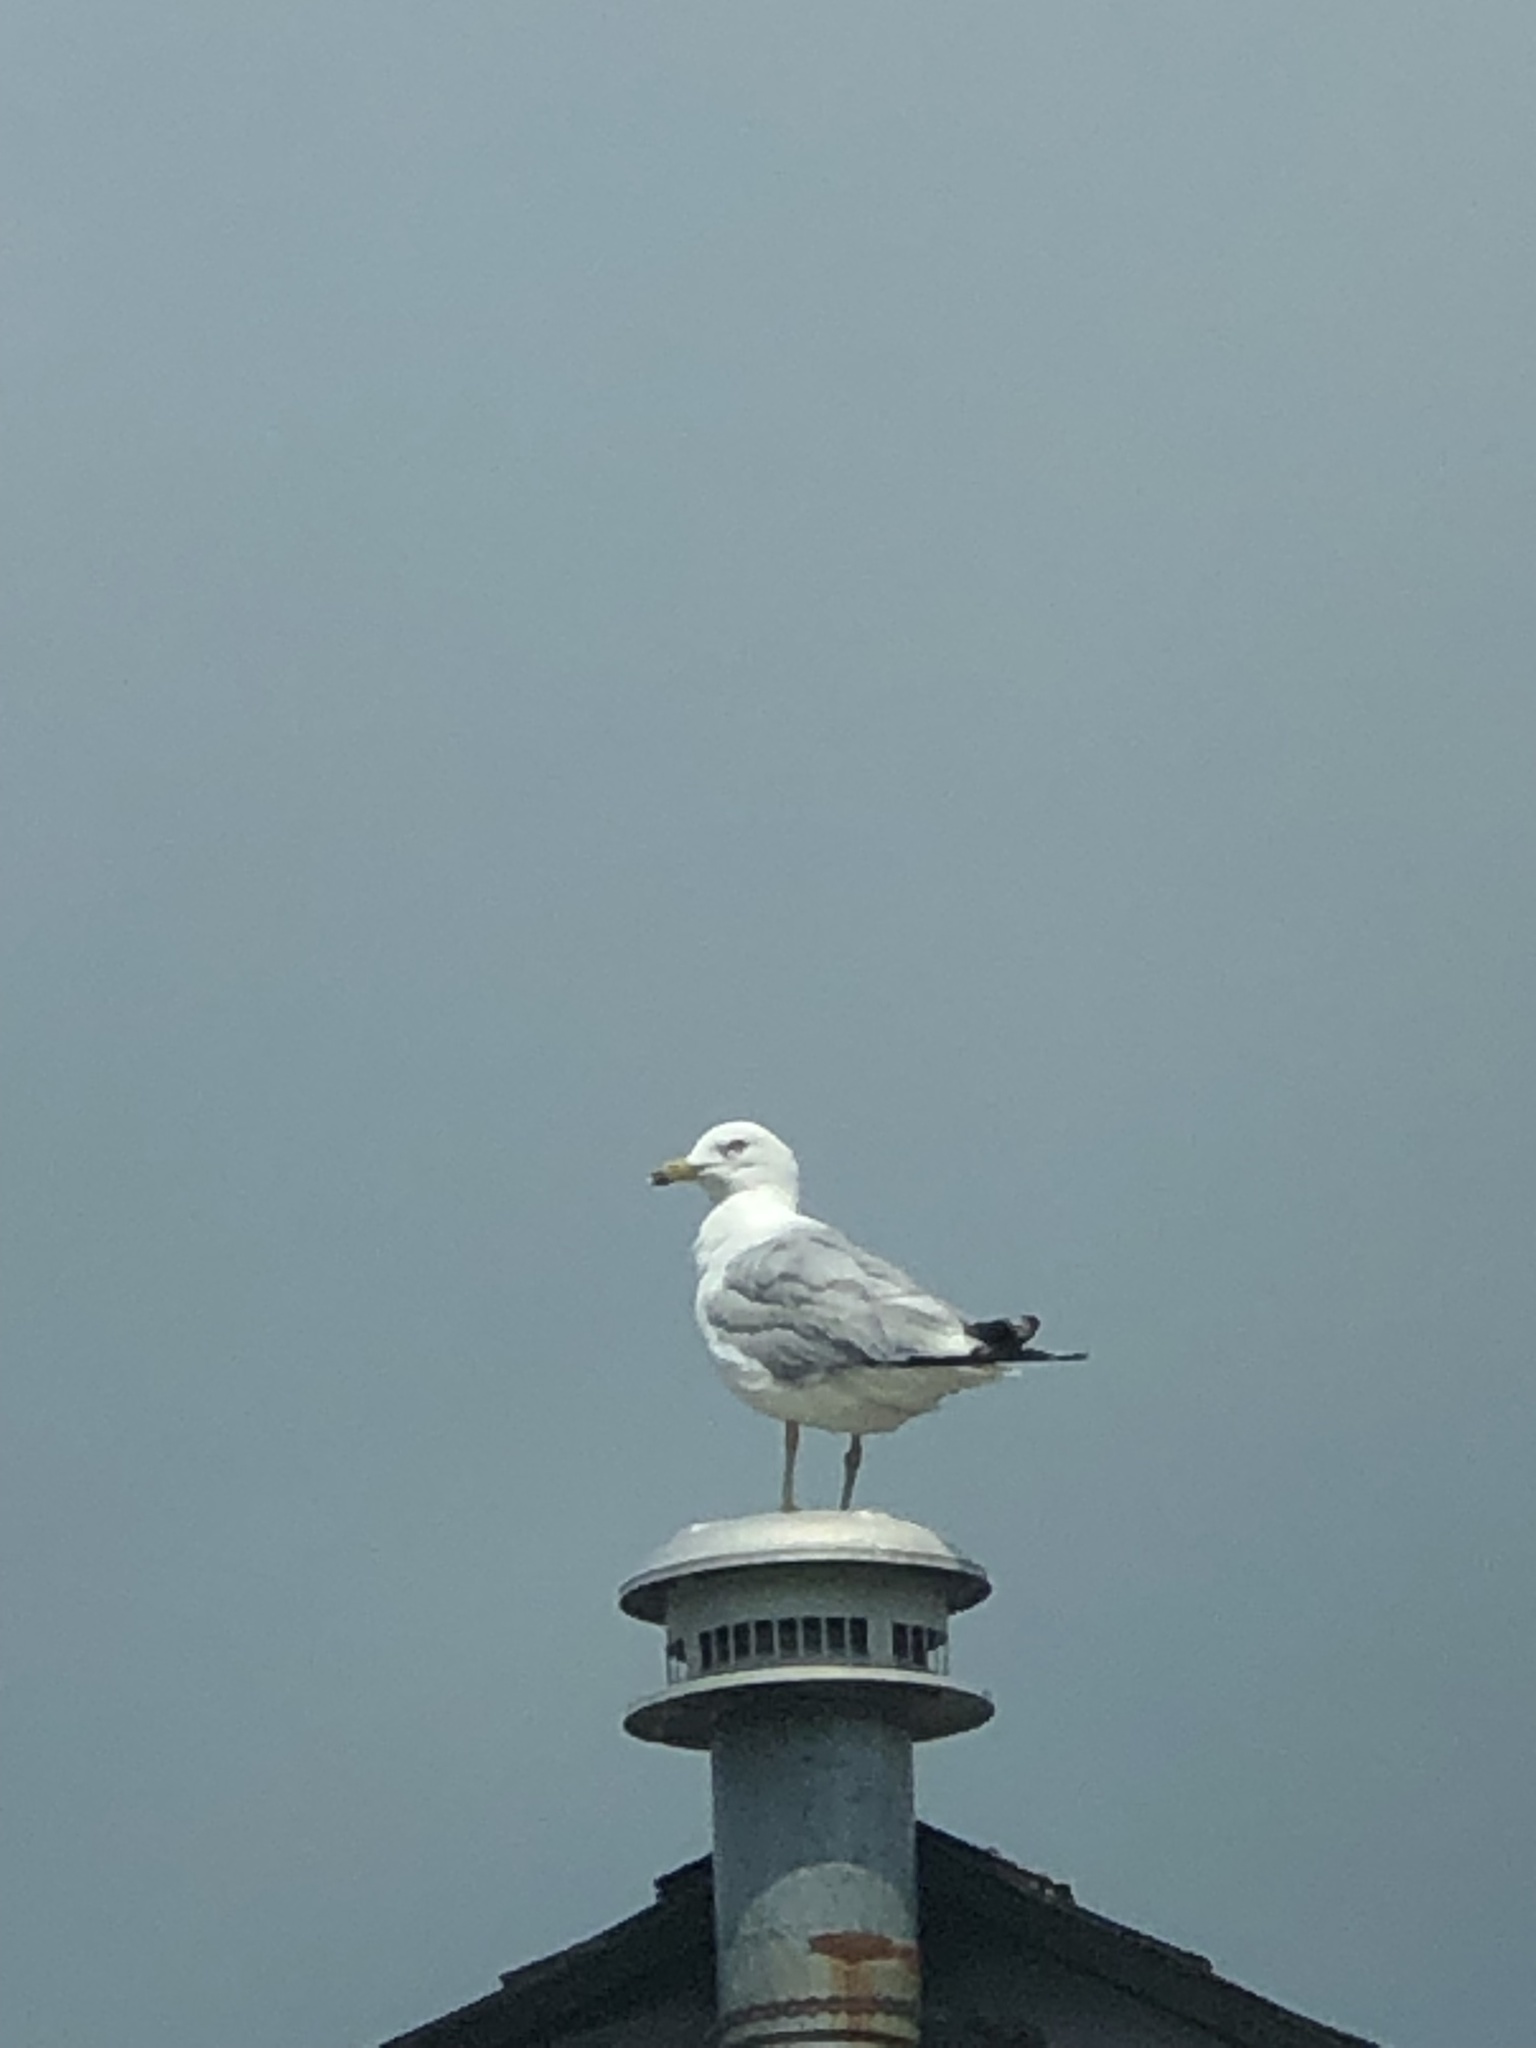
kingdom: Animalia
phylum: Chordata
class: Aves
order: Charadriiformes
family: Laridae
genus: Larus
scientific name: Larus delawarensis
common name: Ring-billed gull
